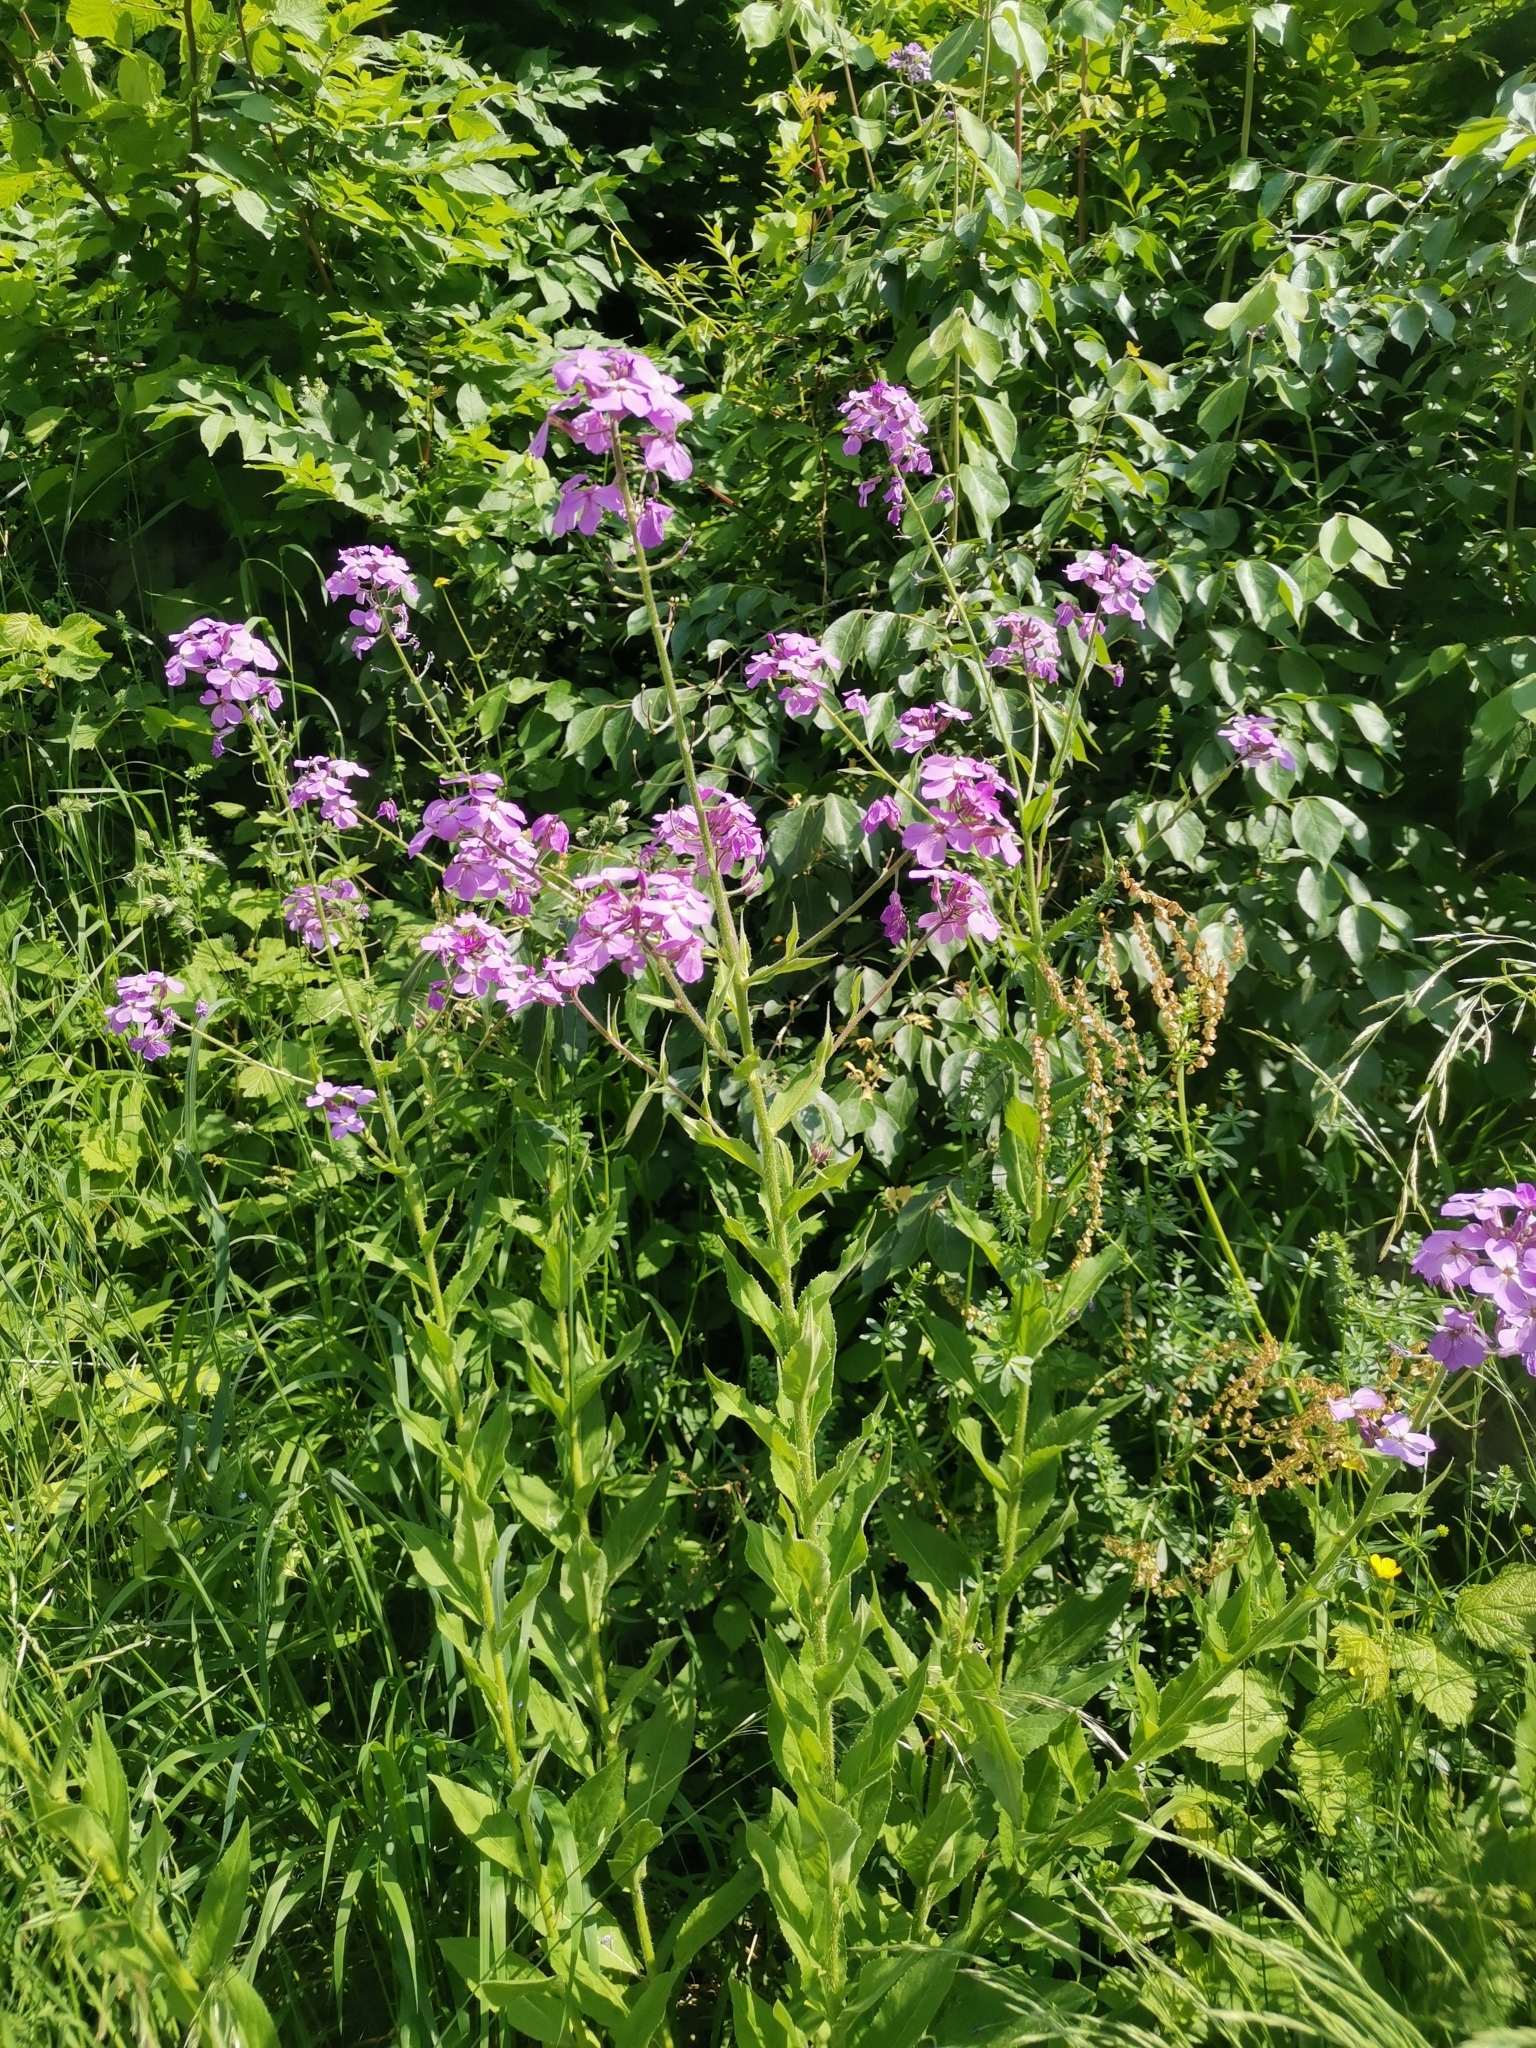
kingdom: Plantae
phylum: Tracheophyta
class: Magnoliopsida
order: Brassicales
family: Brassicaceae
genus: Hesperis
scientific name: Hesperis matronalis
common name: Dame's-violet
